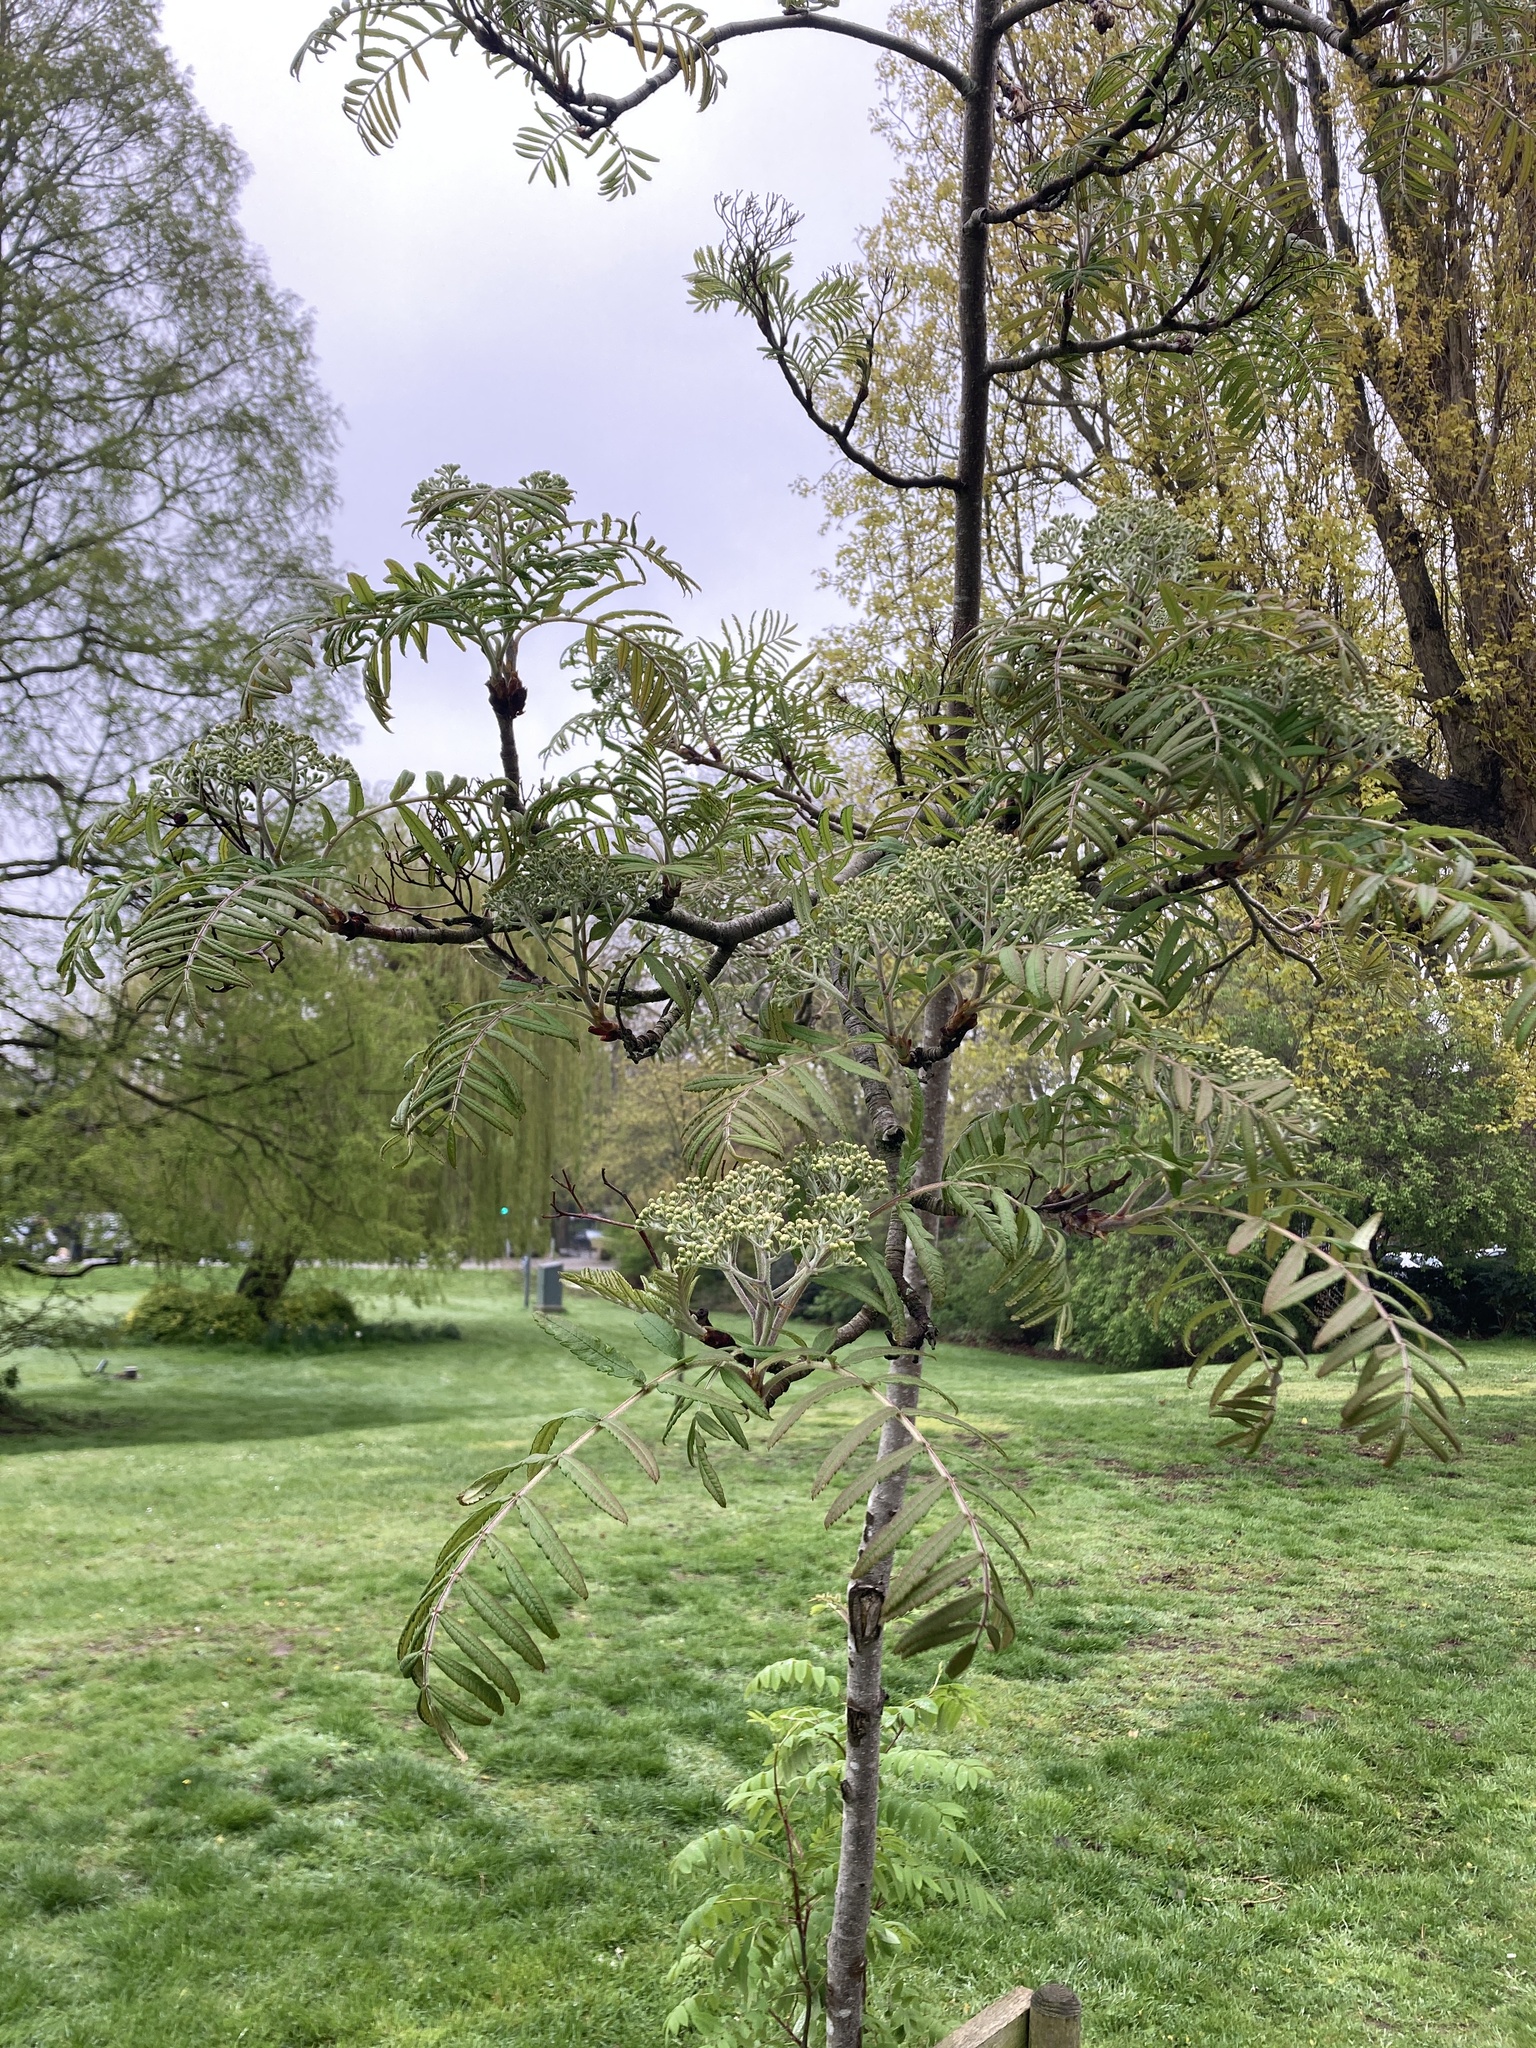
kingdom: Plantae
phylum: Tracheophyta
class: Magnoliopsida
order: Rosales
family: Rosaceae
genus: Sorbus
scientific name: Sorbus aucuparia
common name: Rowan
